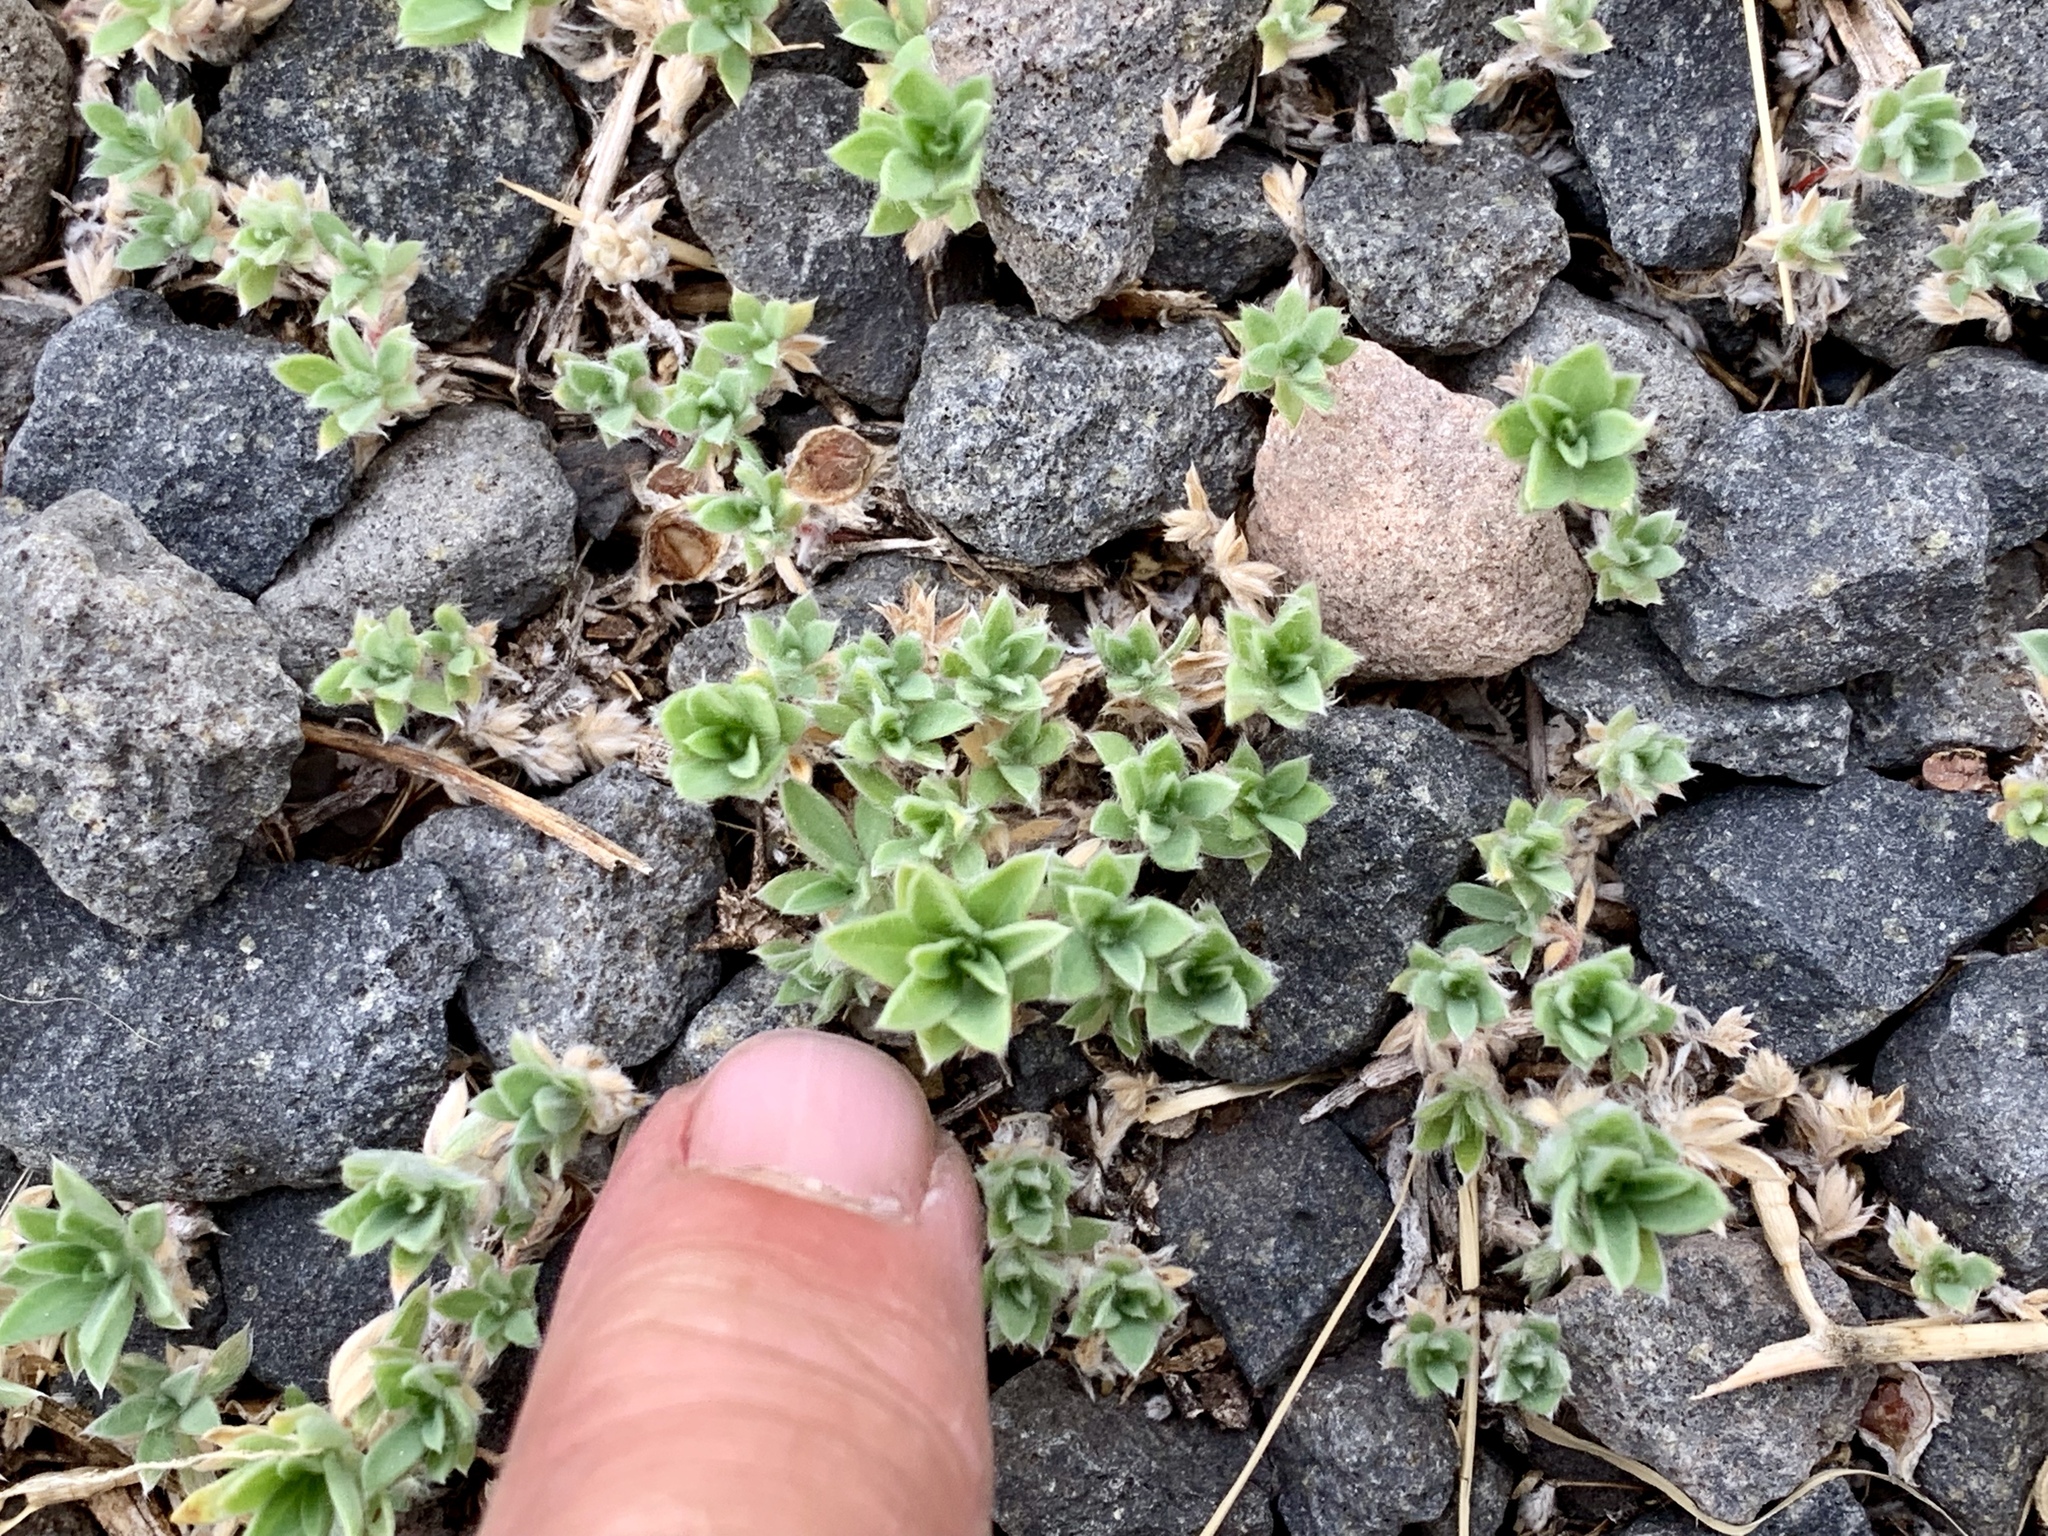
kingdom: Plantae
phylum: Tracheophyta
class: Magnoliopsida
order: Caryophyllales
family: Amaranthaceae
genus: Bassia
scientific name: Bassia scoparia
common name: Belvedere
